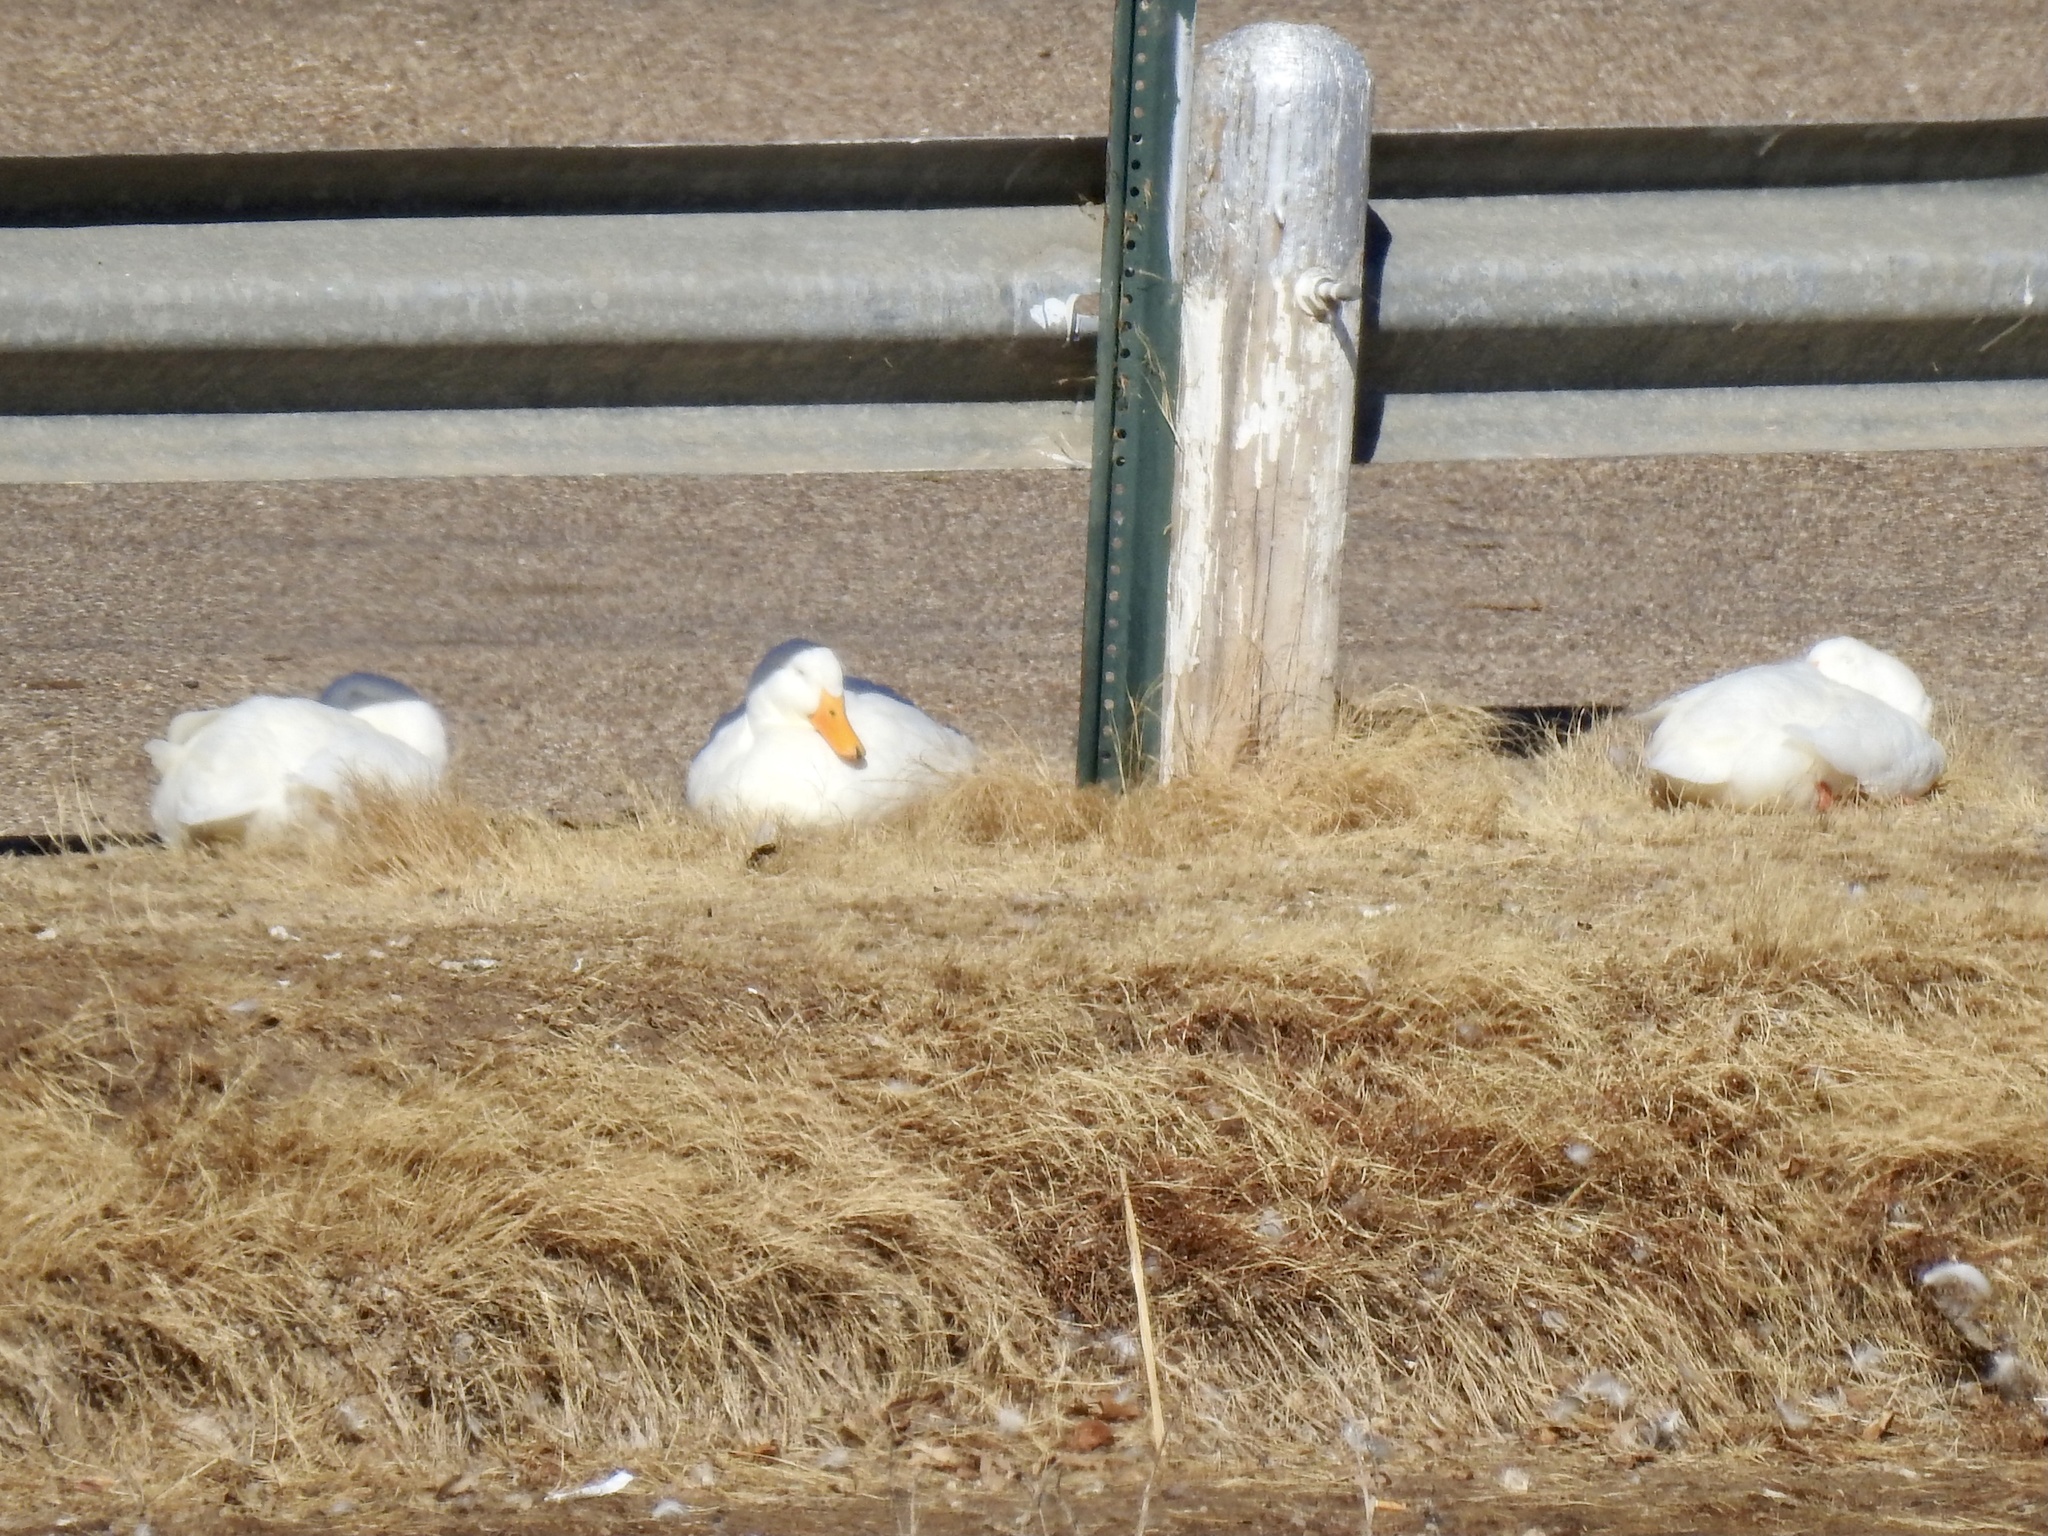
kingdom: Animalia
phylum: Chordata
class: Aves
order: Anseriformes
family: Anatidae
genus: Anas
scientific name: Anas platyrhynchos
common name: Mallard
